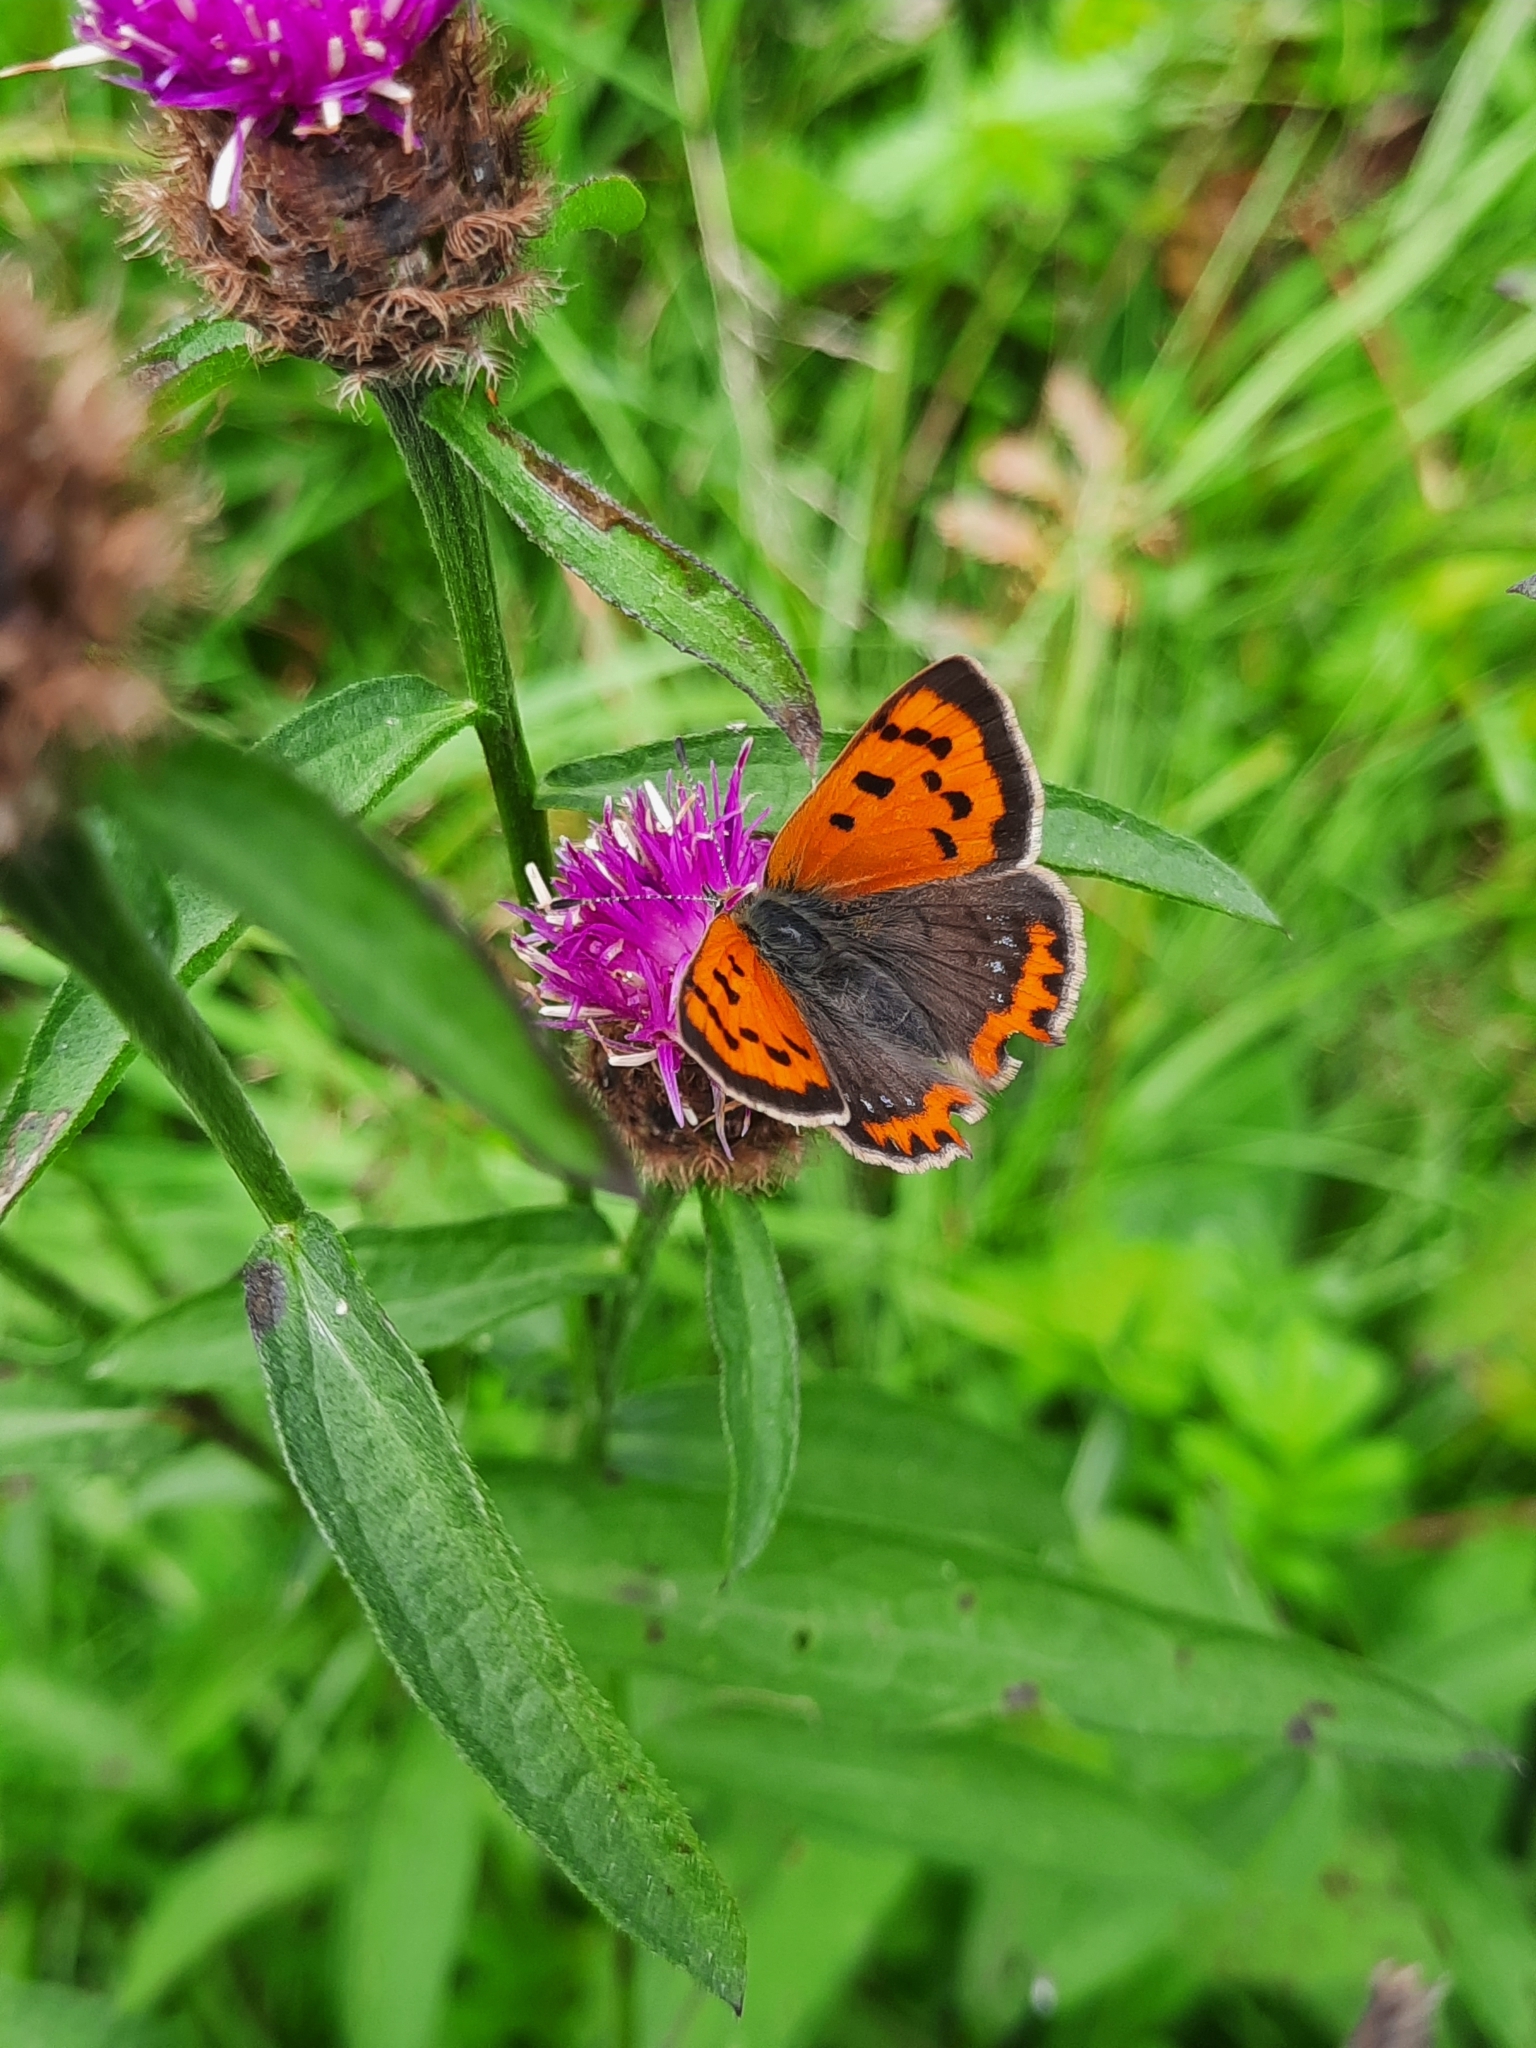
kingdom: Animalia
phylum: Arthropoda
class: Insecta
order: Lepidoptera
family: Lycaenidae
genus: Lycaena
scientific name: Lycaena phlaeas
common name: Small copper
